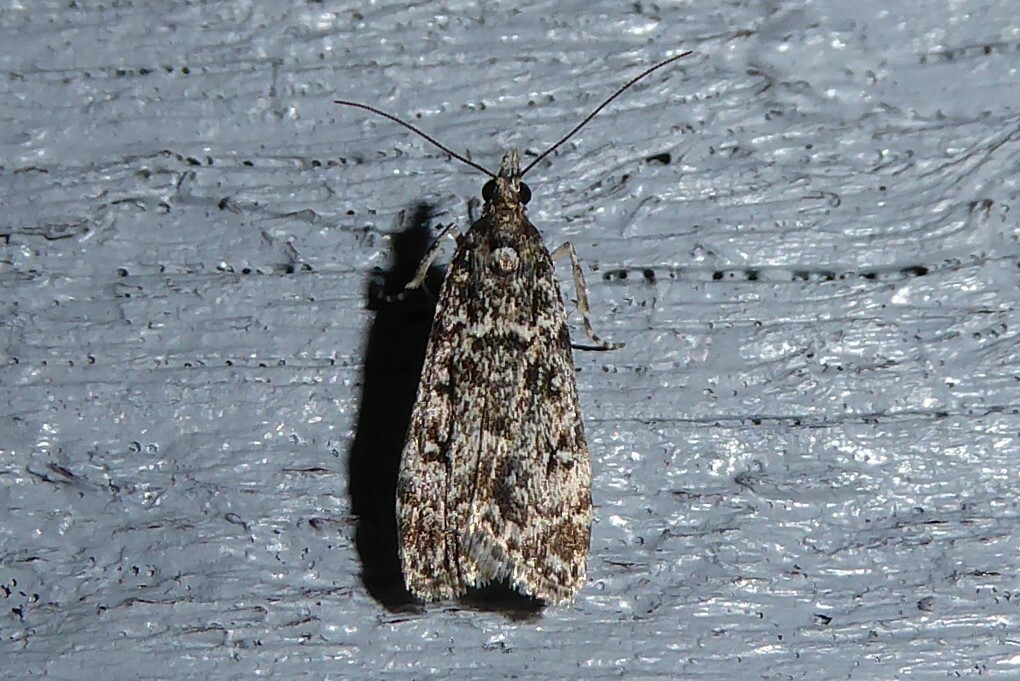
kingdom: Animalia
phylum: Arthropoda
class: Insecta
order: Lepidoptera
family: Crambidae
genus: Eudonia
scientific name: Eudonia philerga
